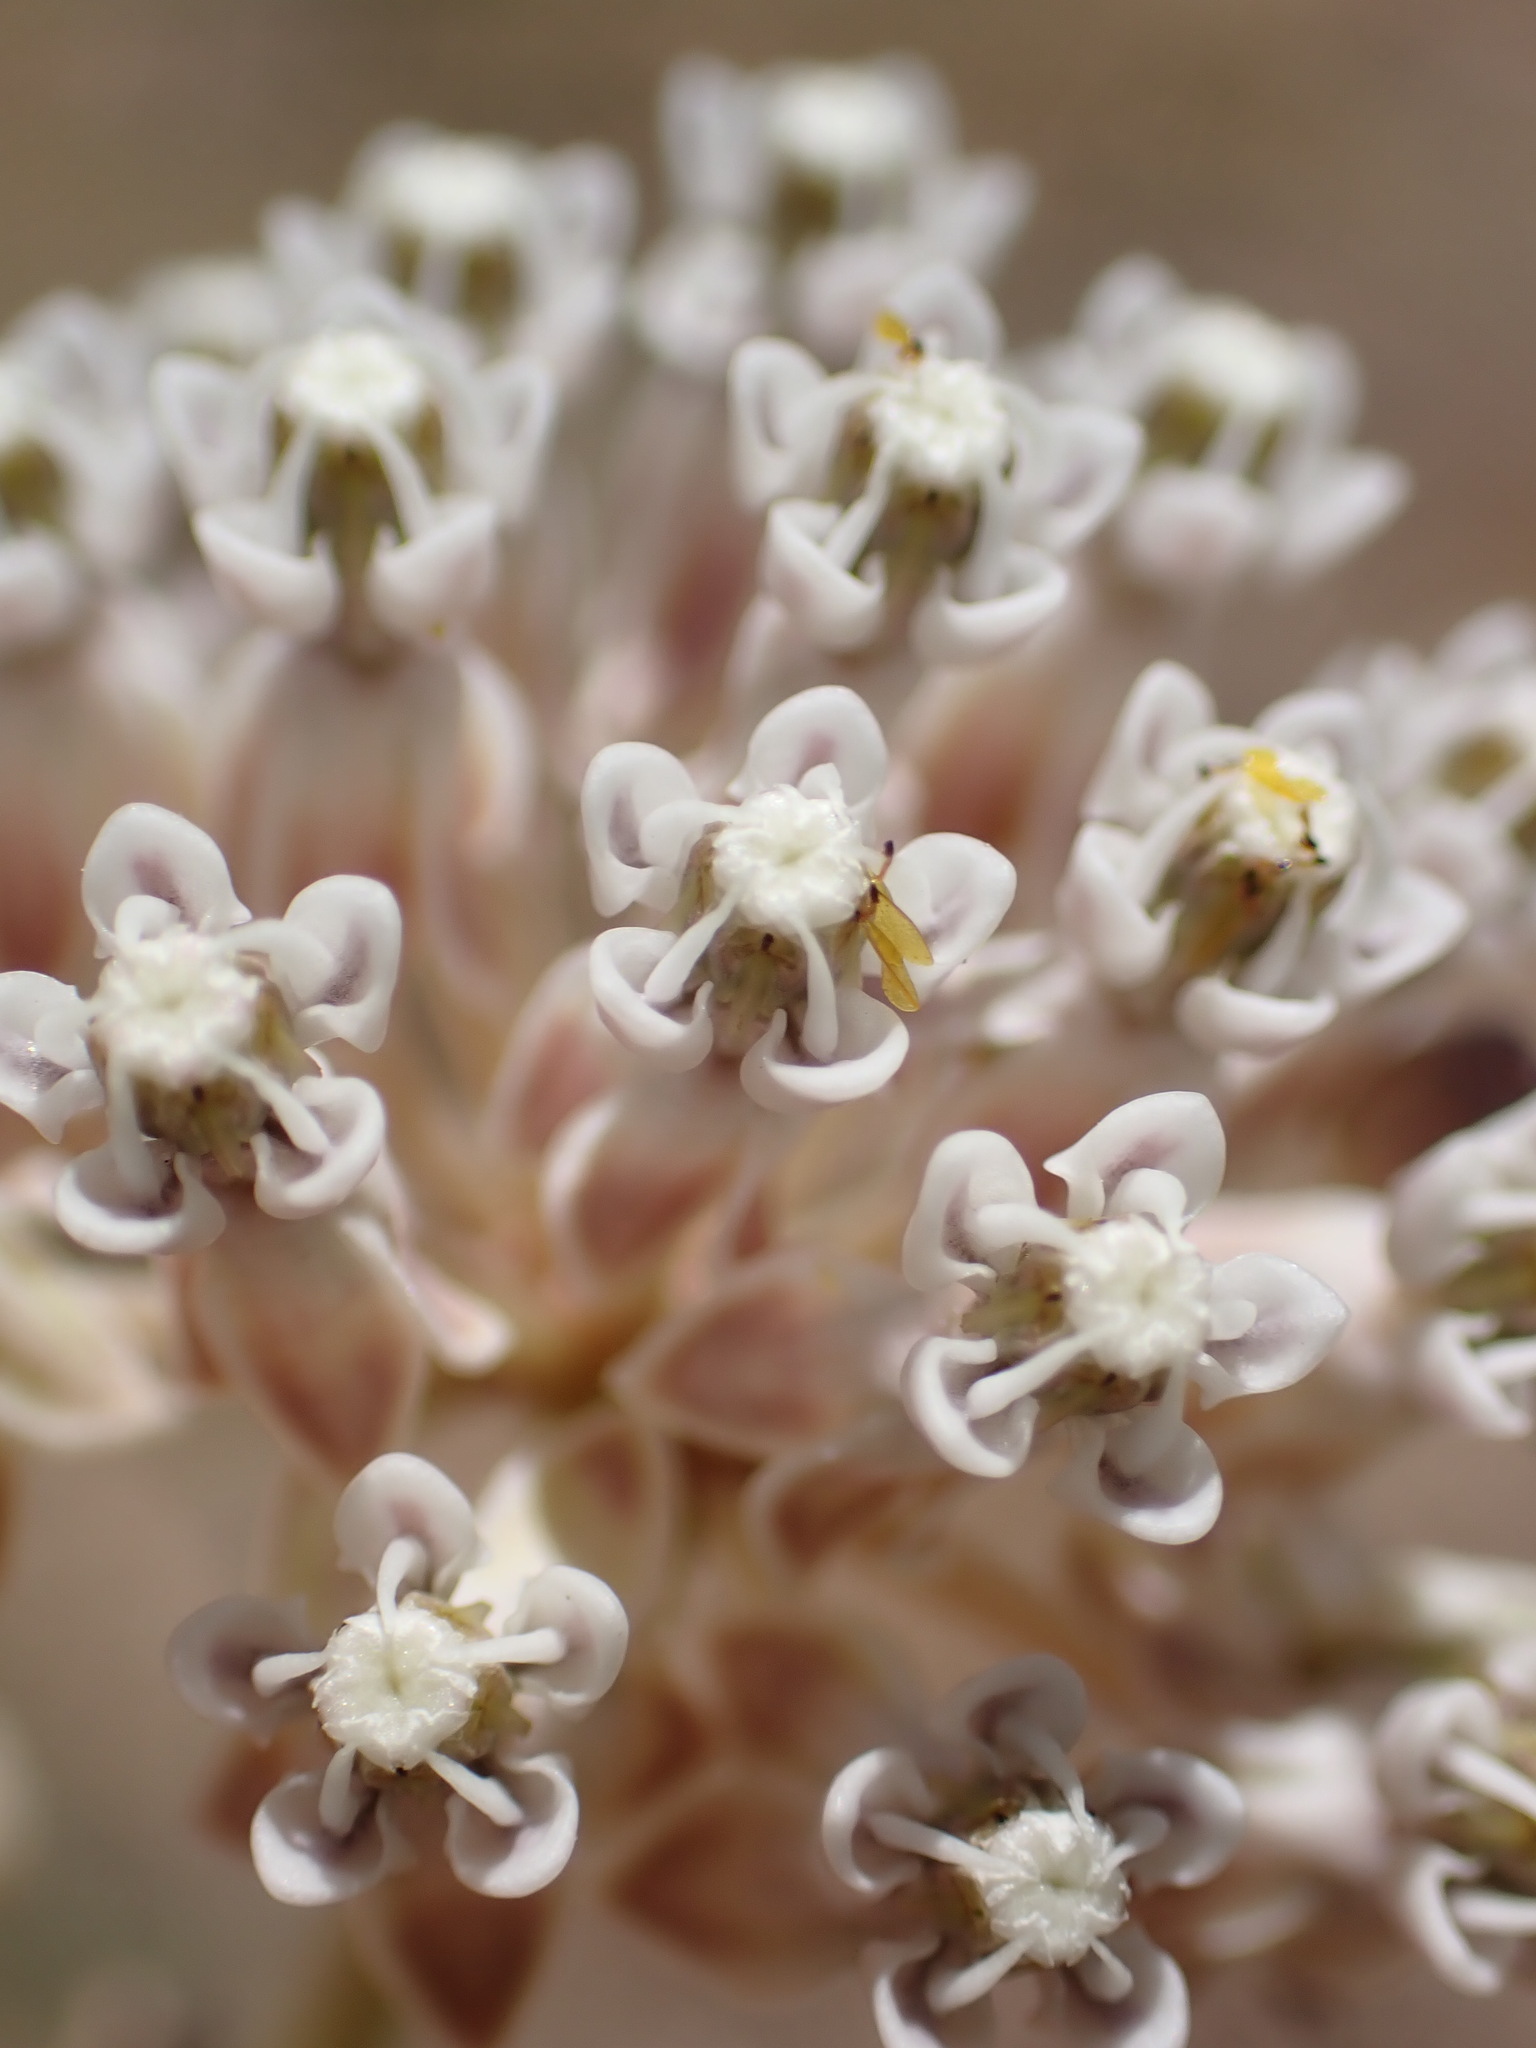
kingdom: Plantae
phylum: Tracheophyta
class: Magnoliopsida
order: Gentianales
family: Apocynaceae
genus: Asclepias
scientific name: Asclepias fascicularis
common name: Mexican milkweed
